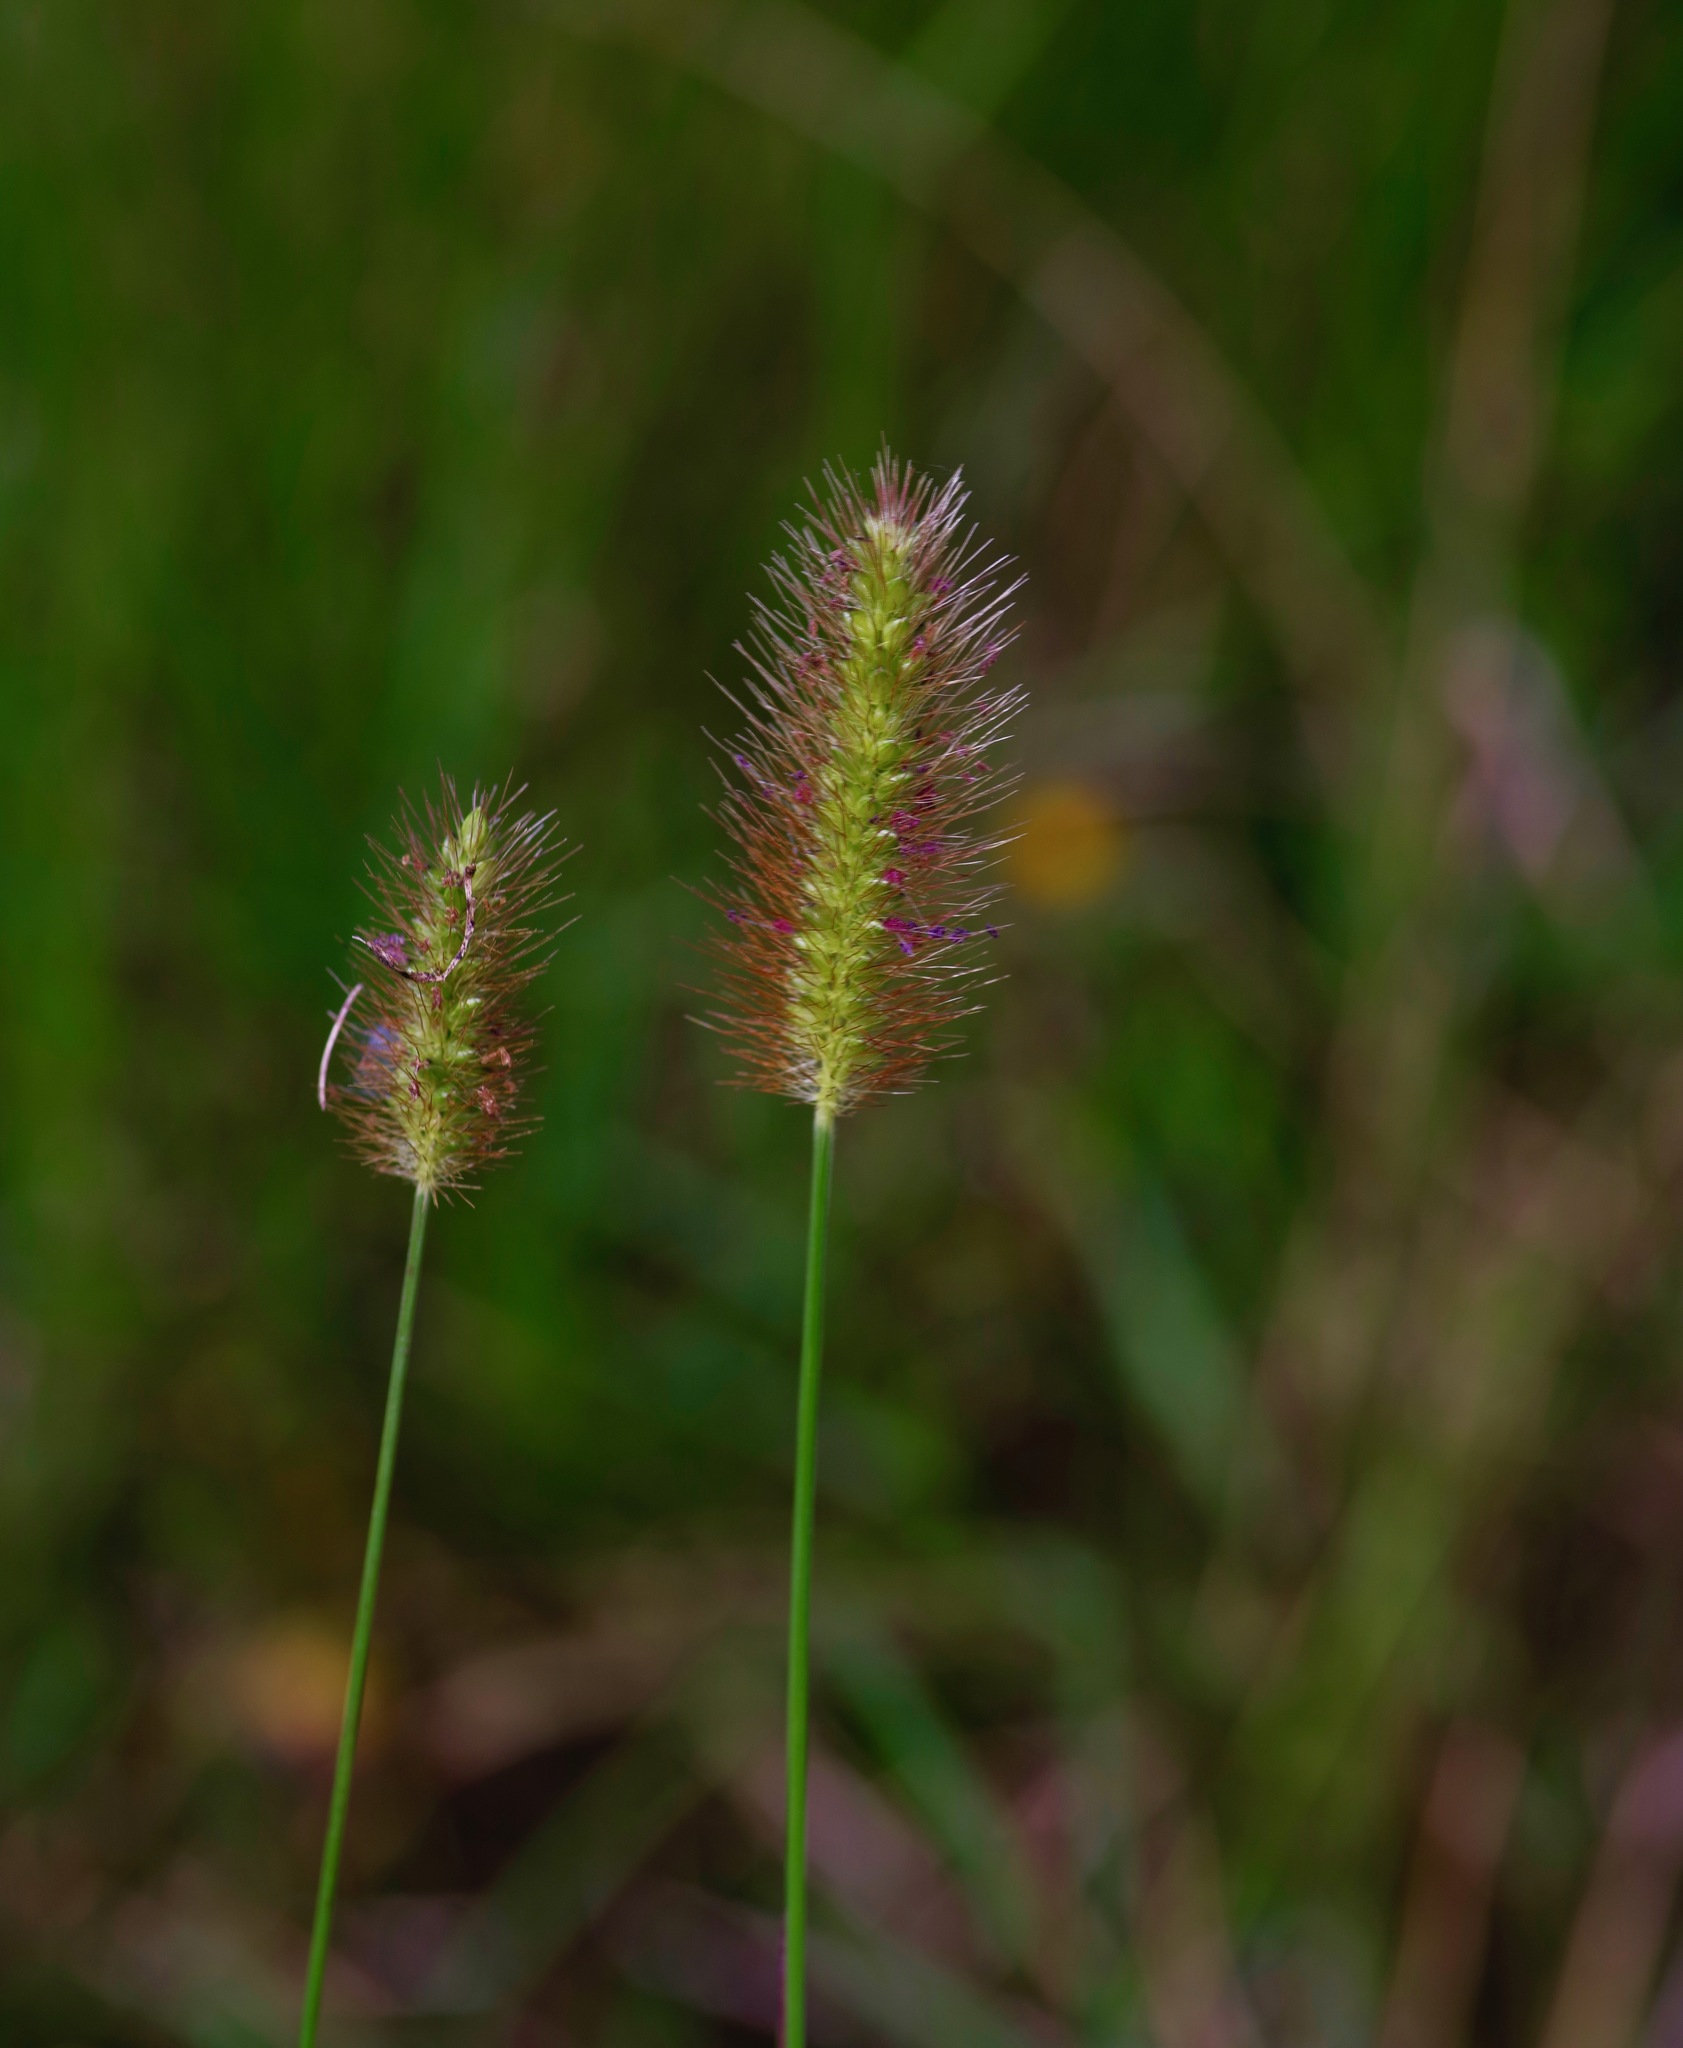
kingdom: Plantae
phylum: Tracheophyta
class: Liliopsida
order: Poales
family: Poaceae
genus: Setaria
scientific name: Setaria parviflora
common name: Knotroot bristle-grass
